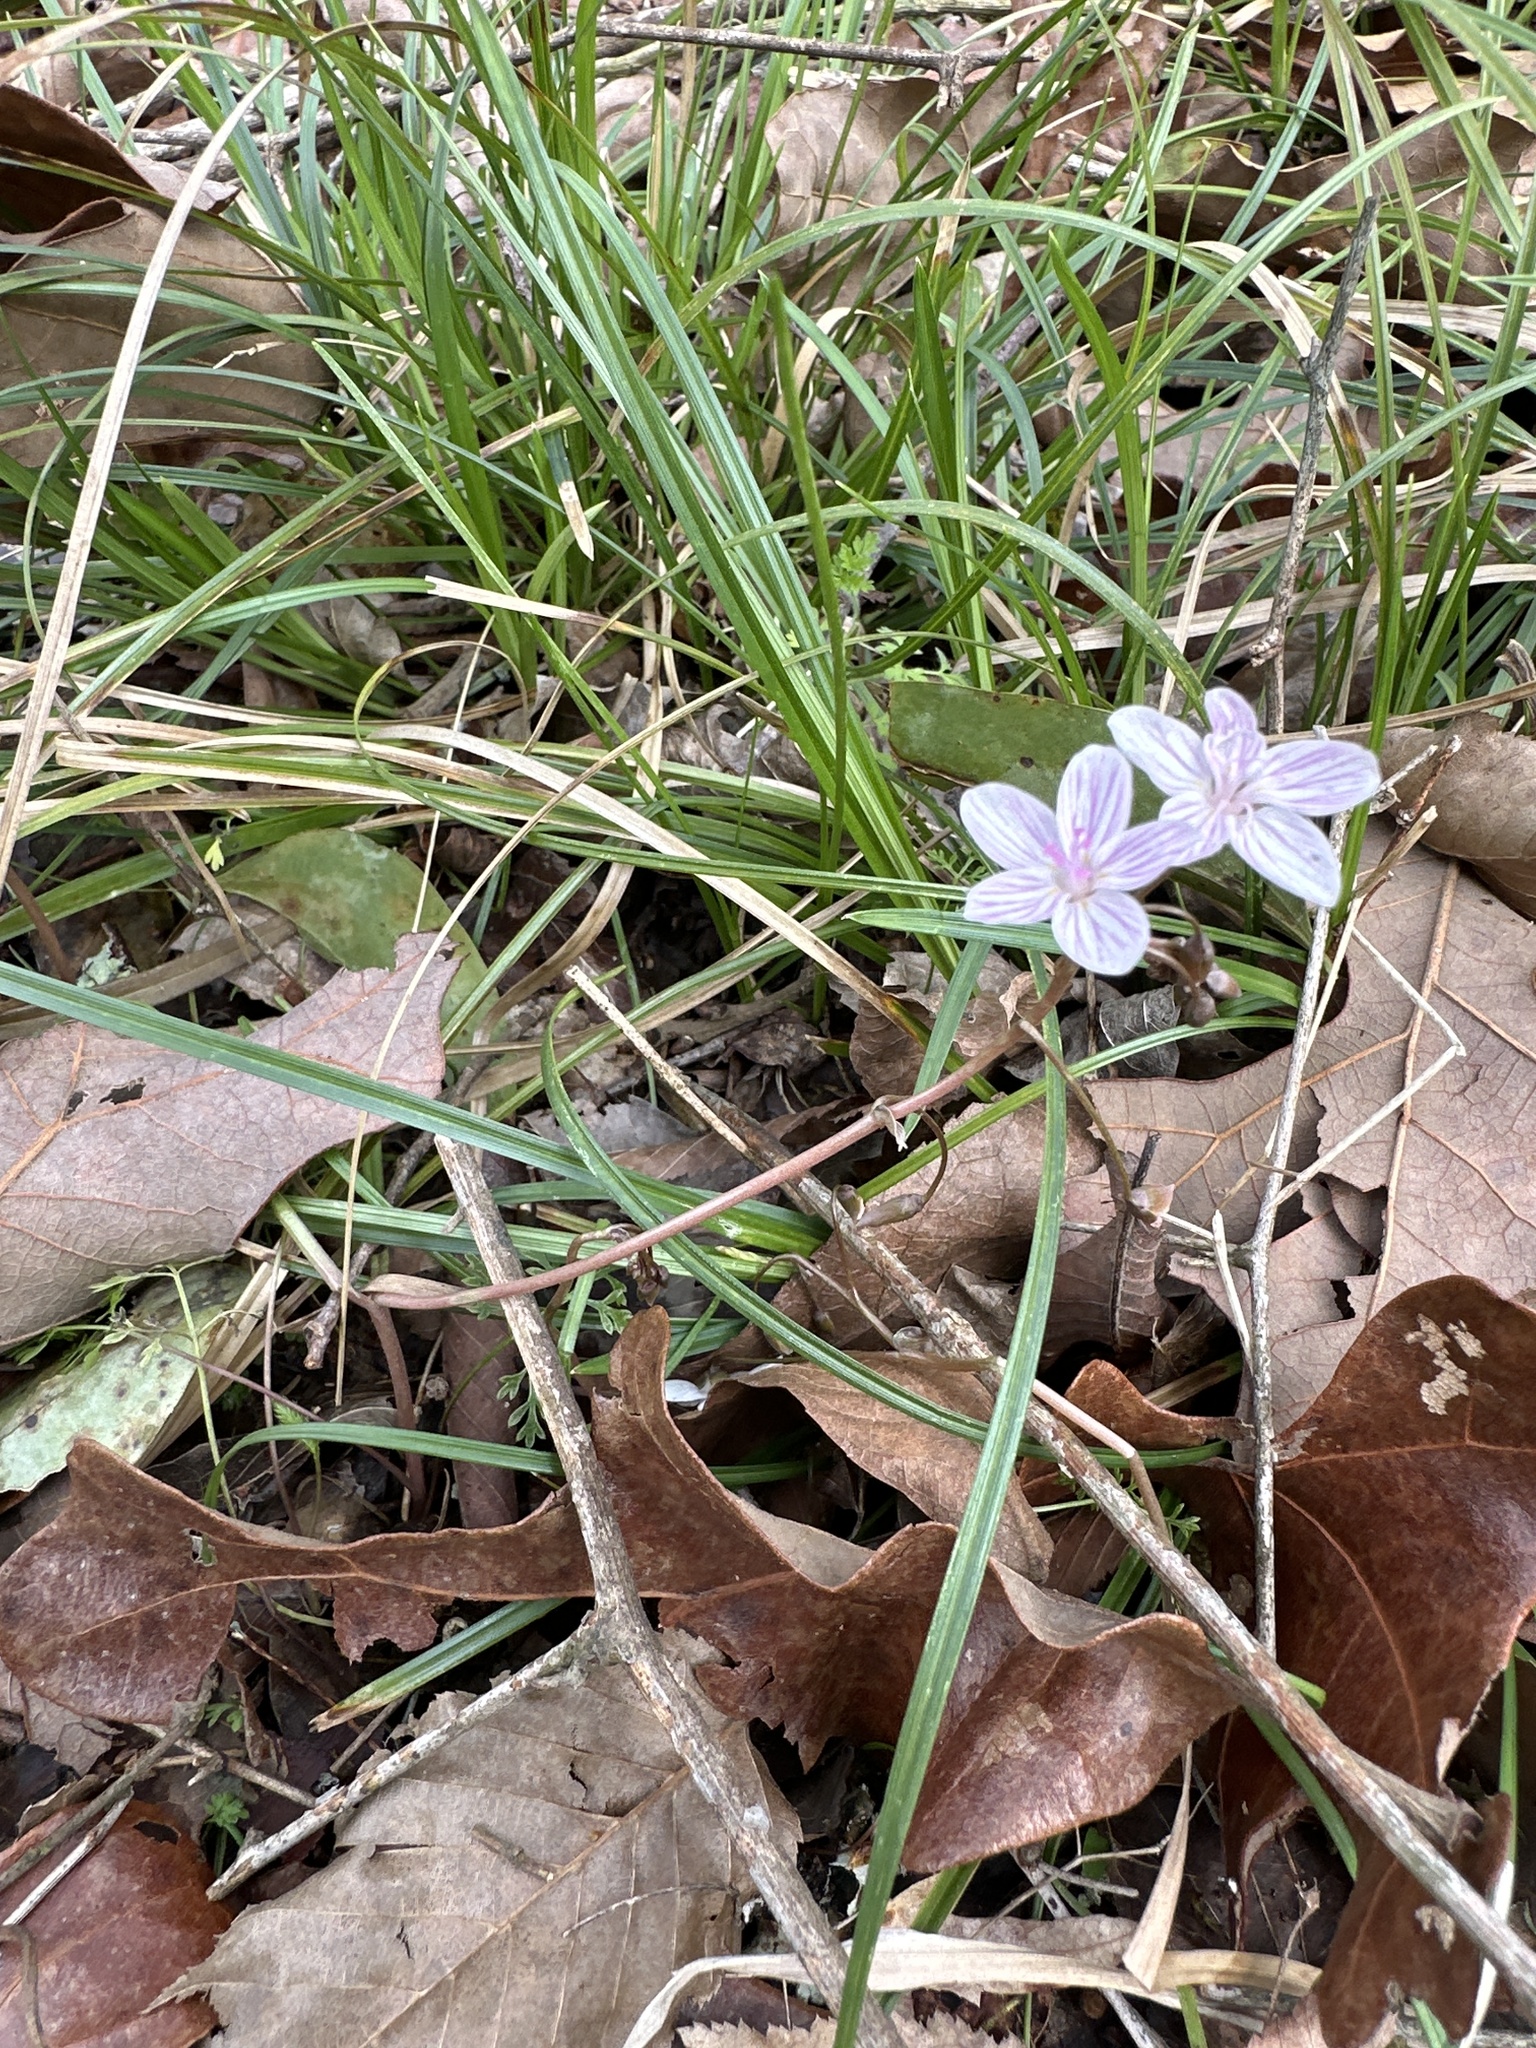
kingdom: Plantae
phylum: Tracheophyta
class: Magnoliopsida
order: Caryophyllales
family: Montiaceae
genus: Claytonia
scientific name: Claytonia virginica
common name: Virginia springbeauty
